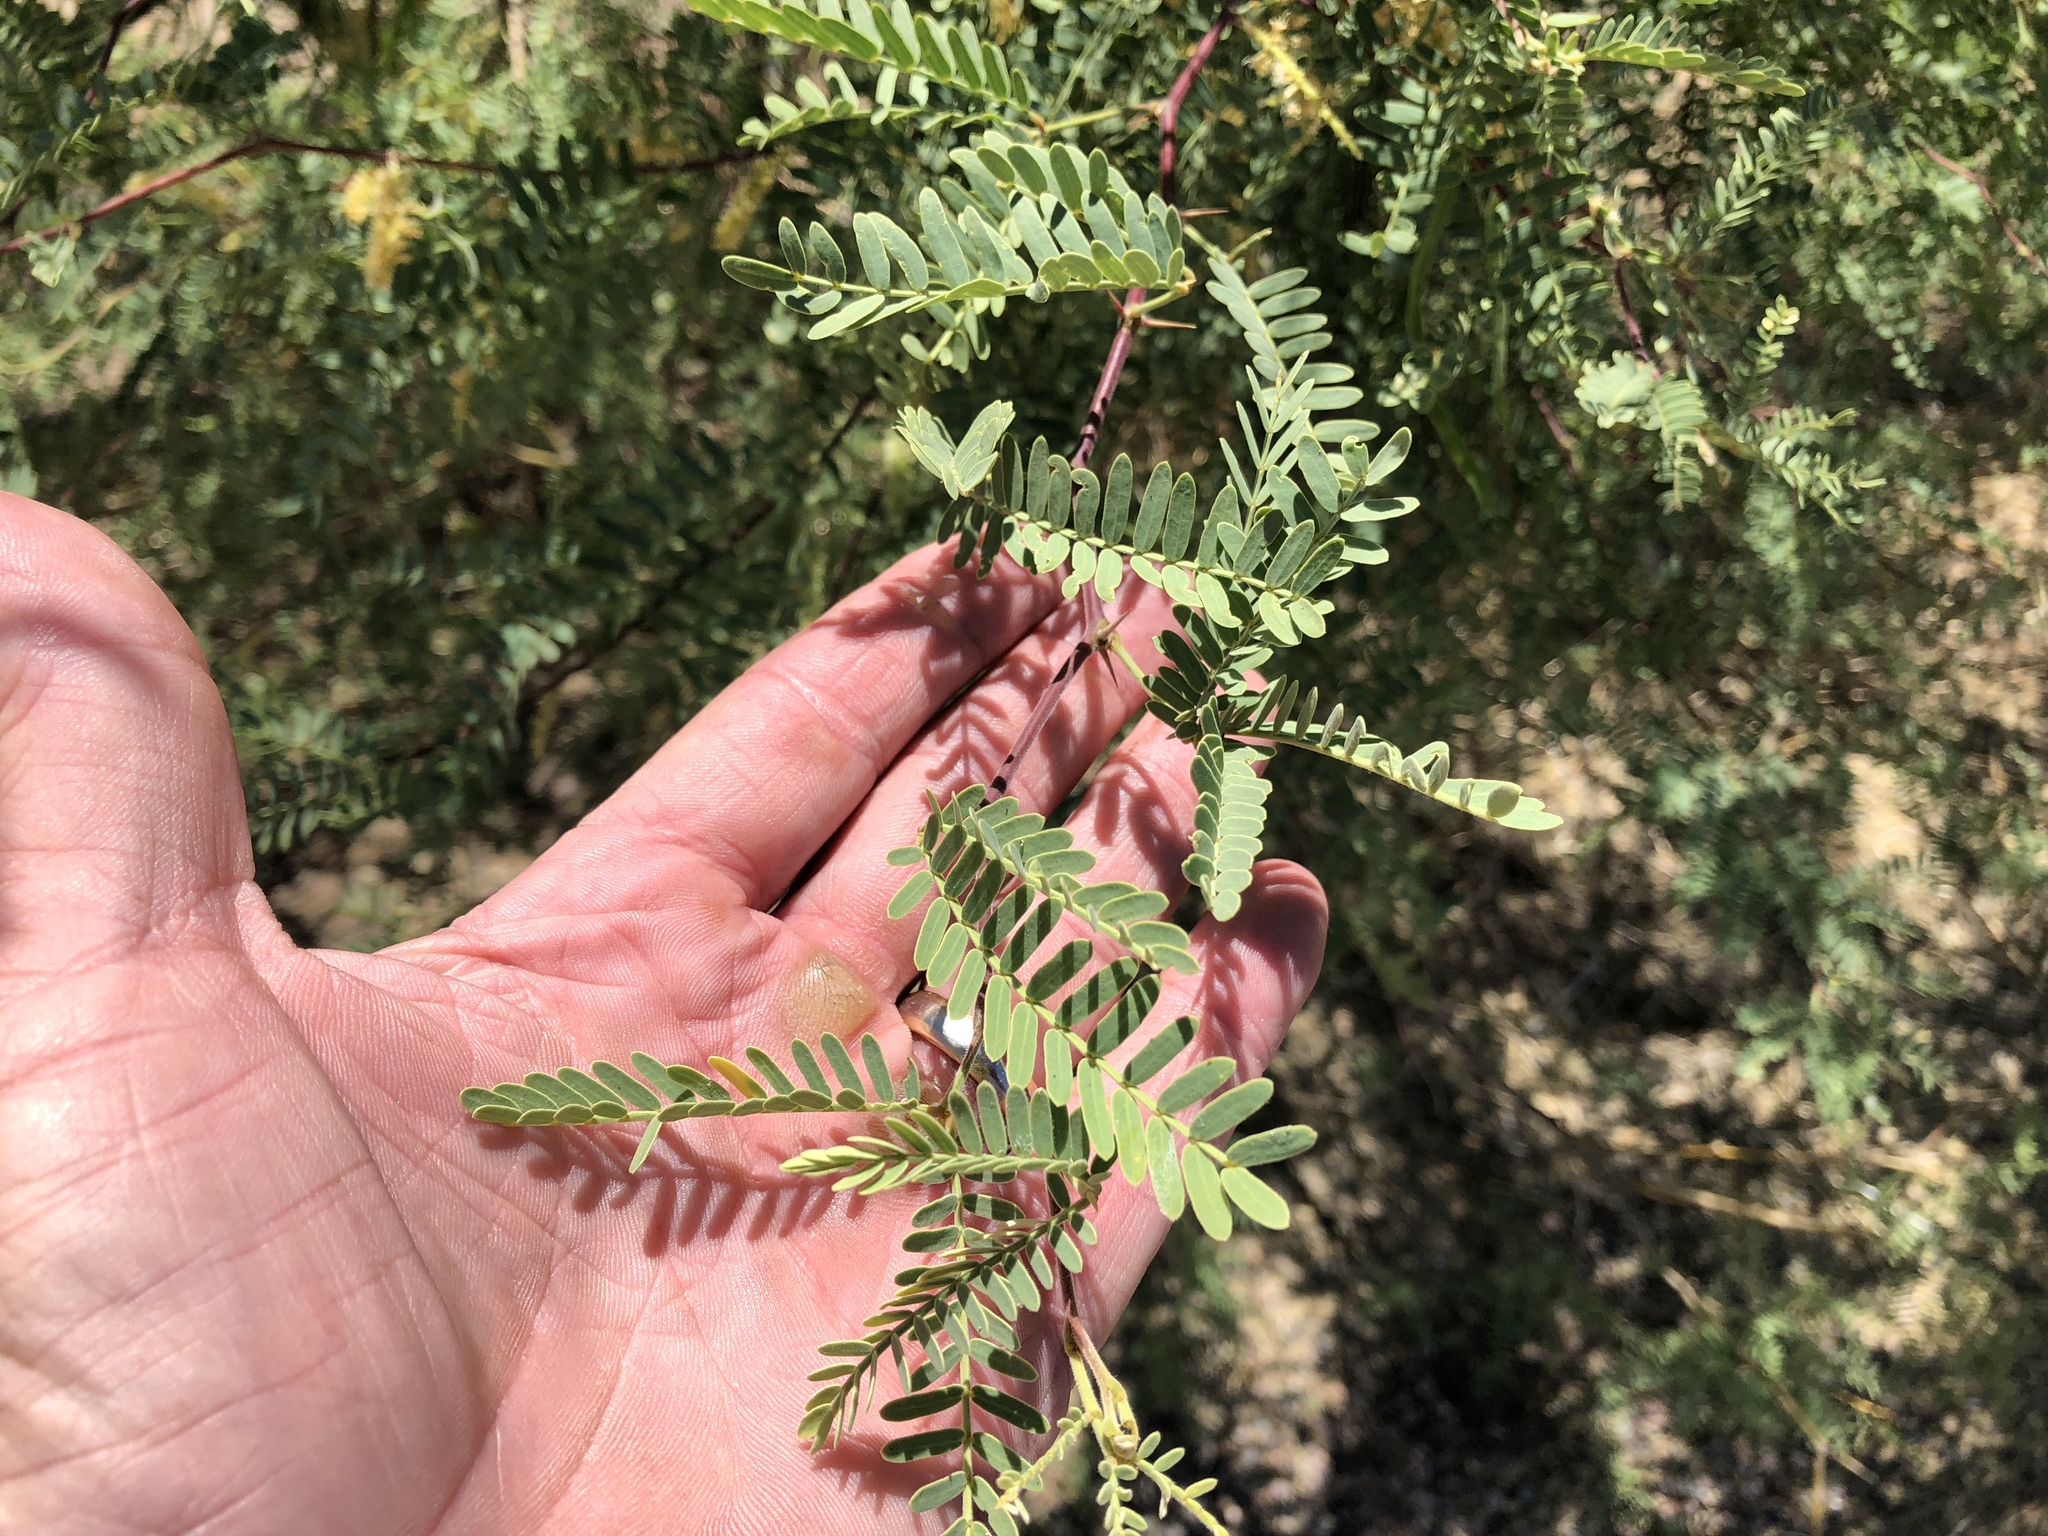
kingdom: Plantae
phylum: Tracheophyta
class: Magnoliopsida
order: Fabales
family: Fabaceae
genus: Prosopis
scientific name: Prosopis velutina
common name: Velvet mesquite
